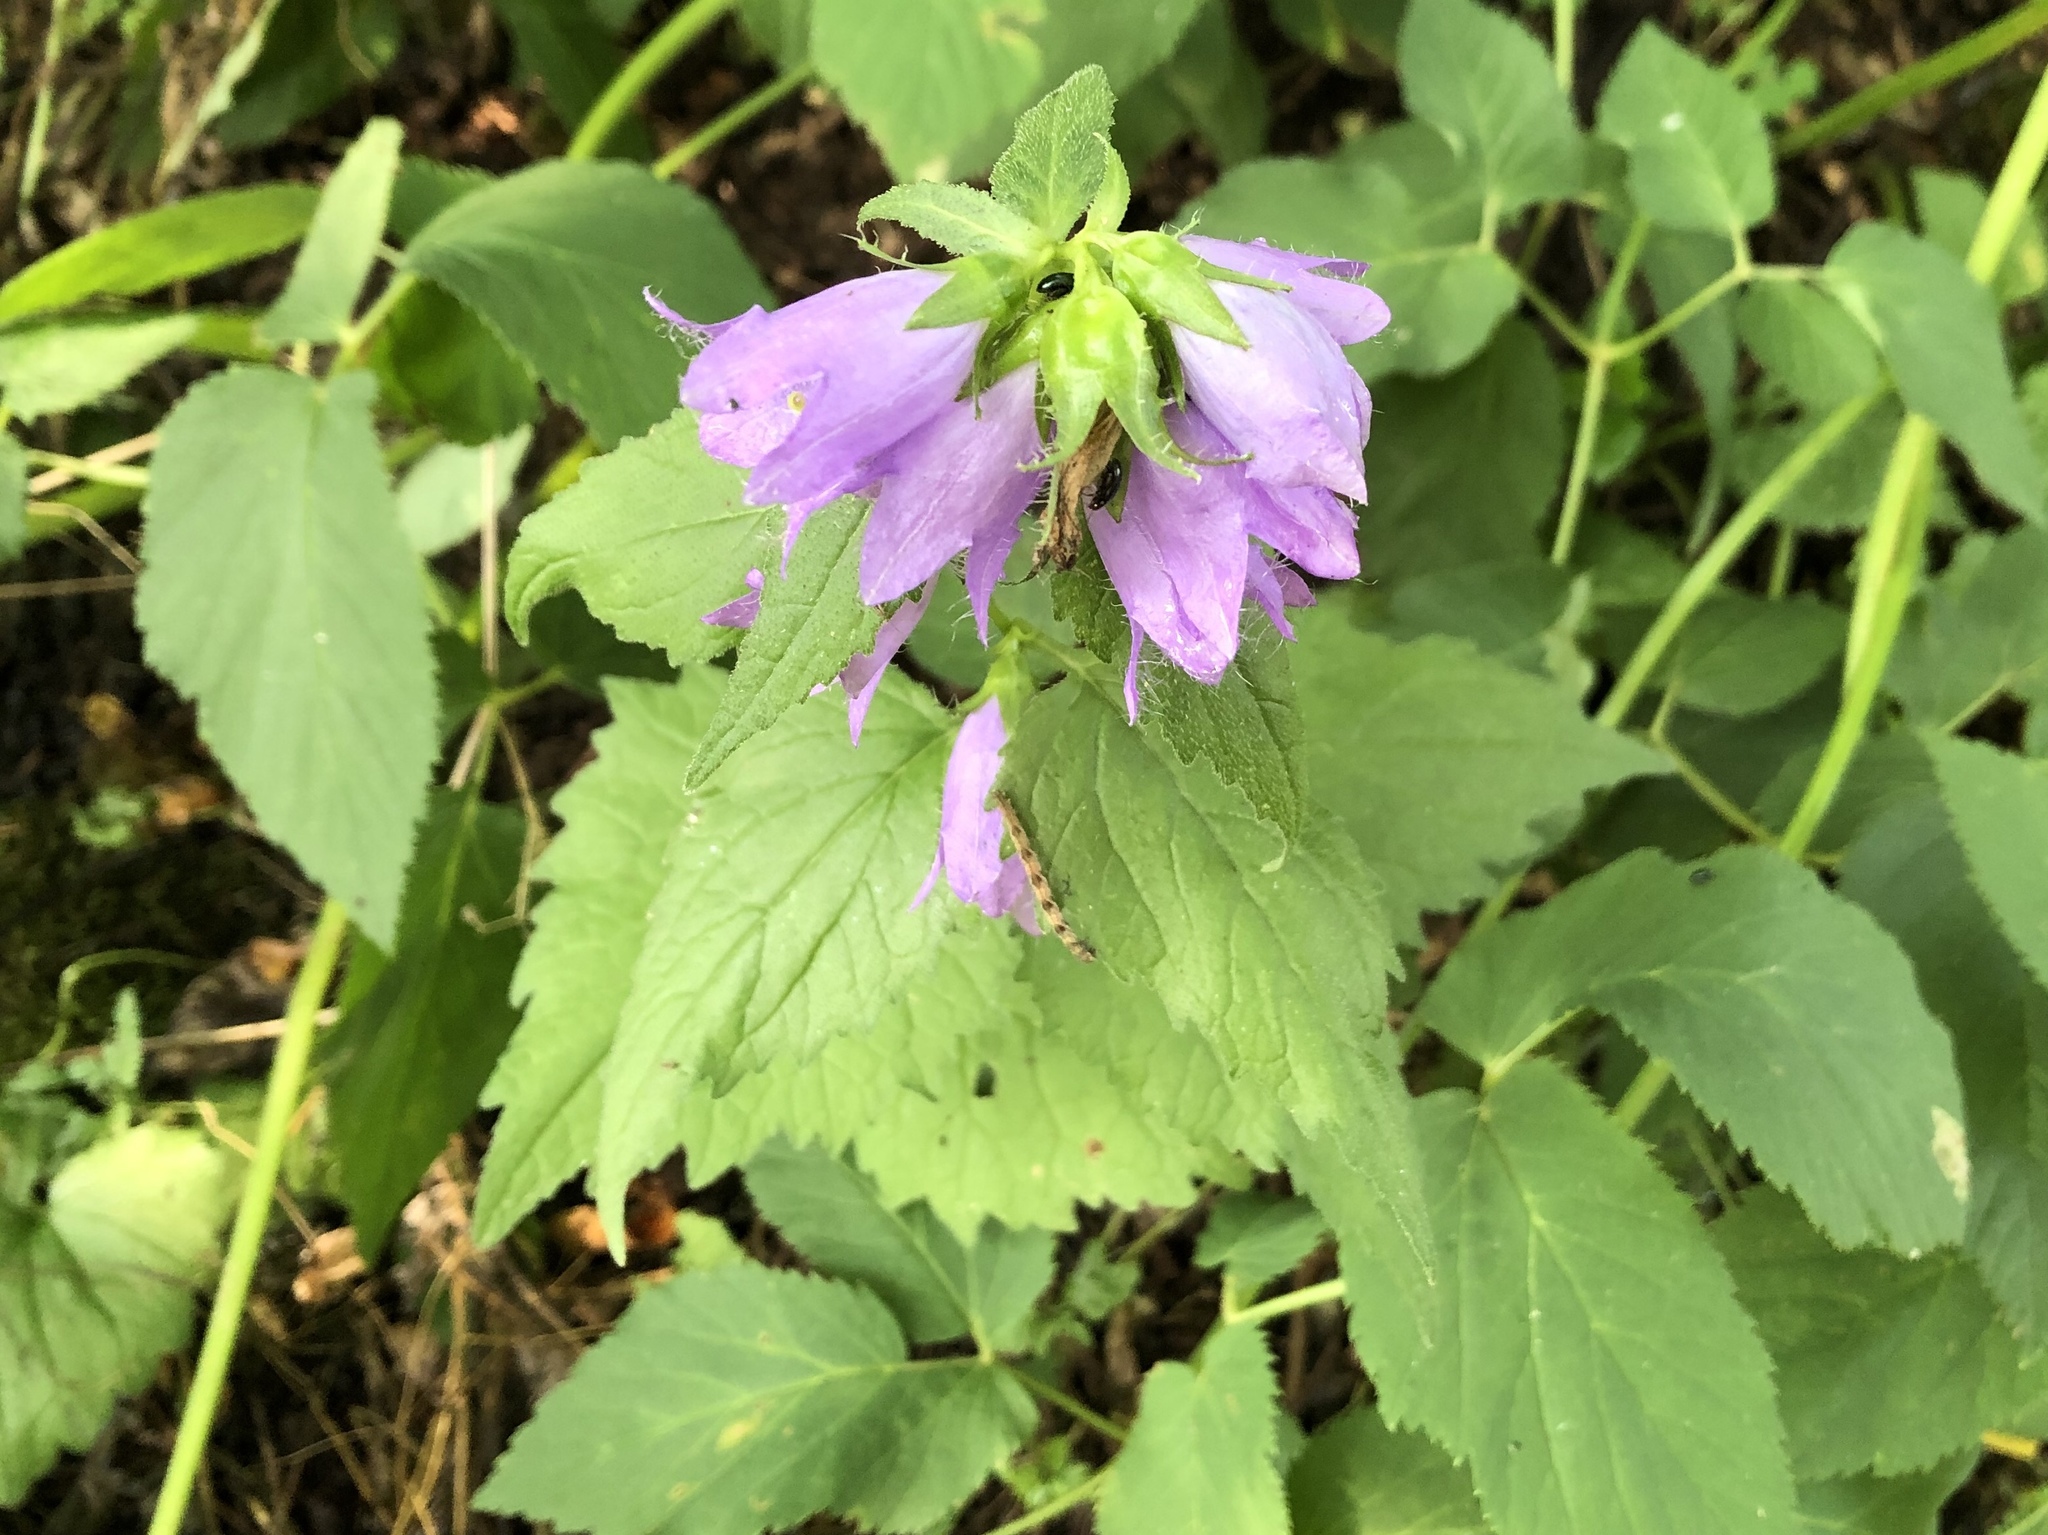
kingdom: Plantae
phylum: Tracheophyta
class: Magnoliopsida
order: Asterales
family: Campanulaceae
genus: Campanula
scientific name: Campanula trachelium
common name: Nettle-leaved bellflower
